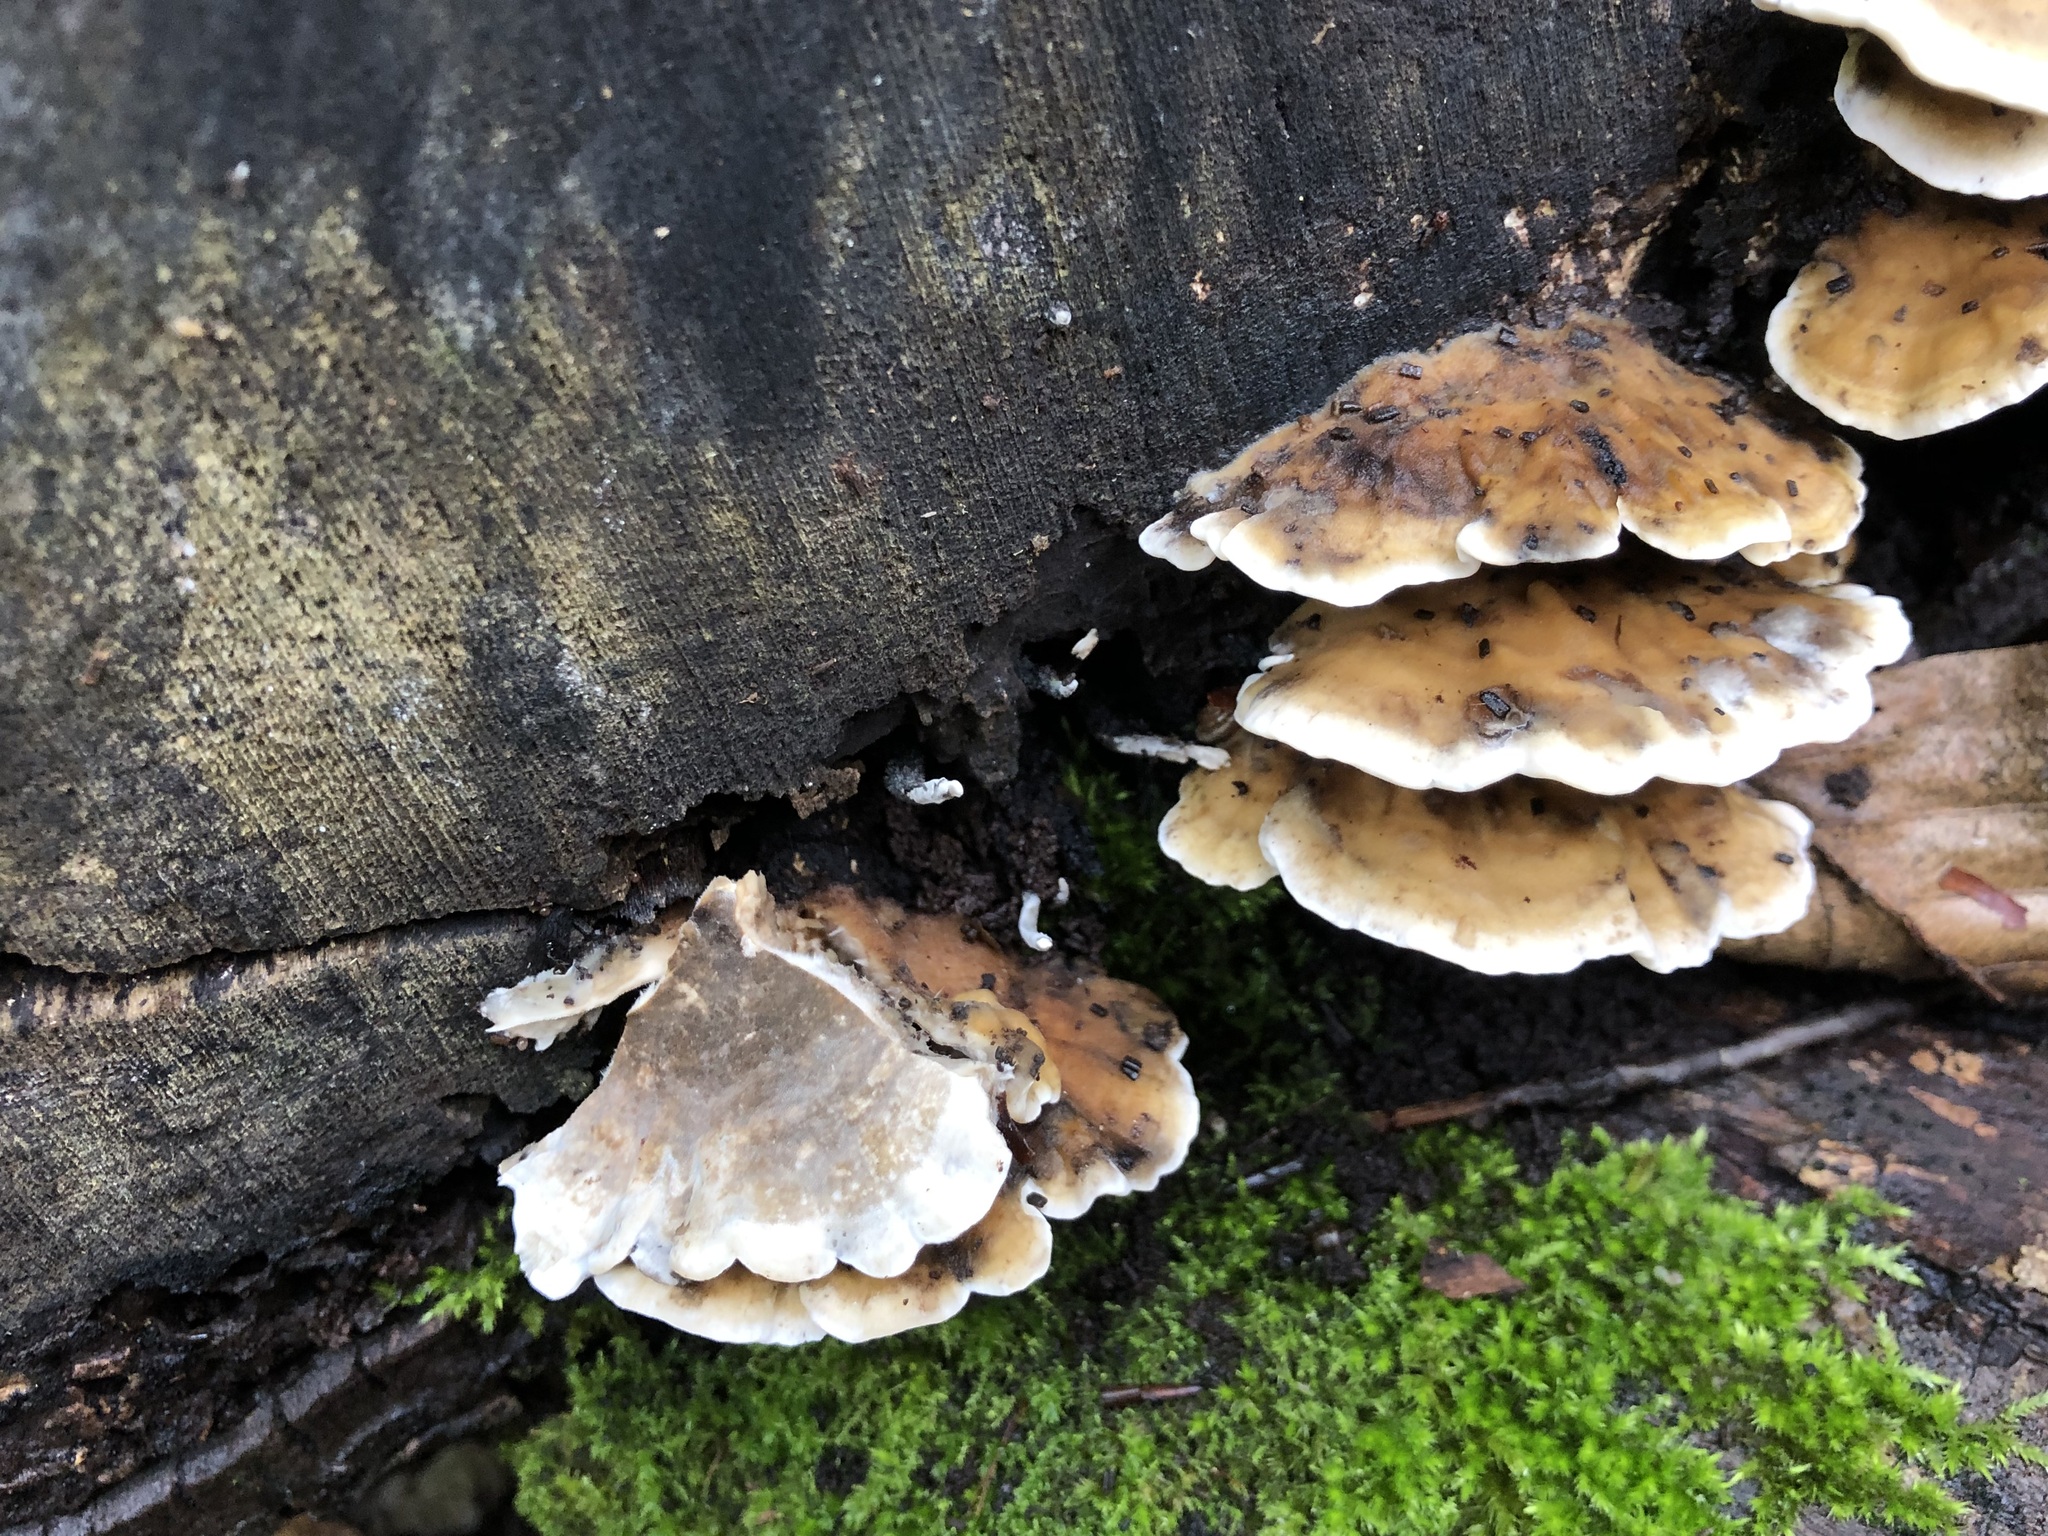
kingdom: Fungi
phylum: Basidiomycota
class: Agaricomycetes
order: Polyporales
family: Phanerochaetaceae
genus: Bjerkandera
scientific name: Bjerkandera adusta
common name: Smoky bracket
